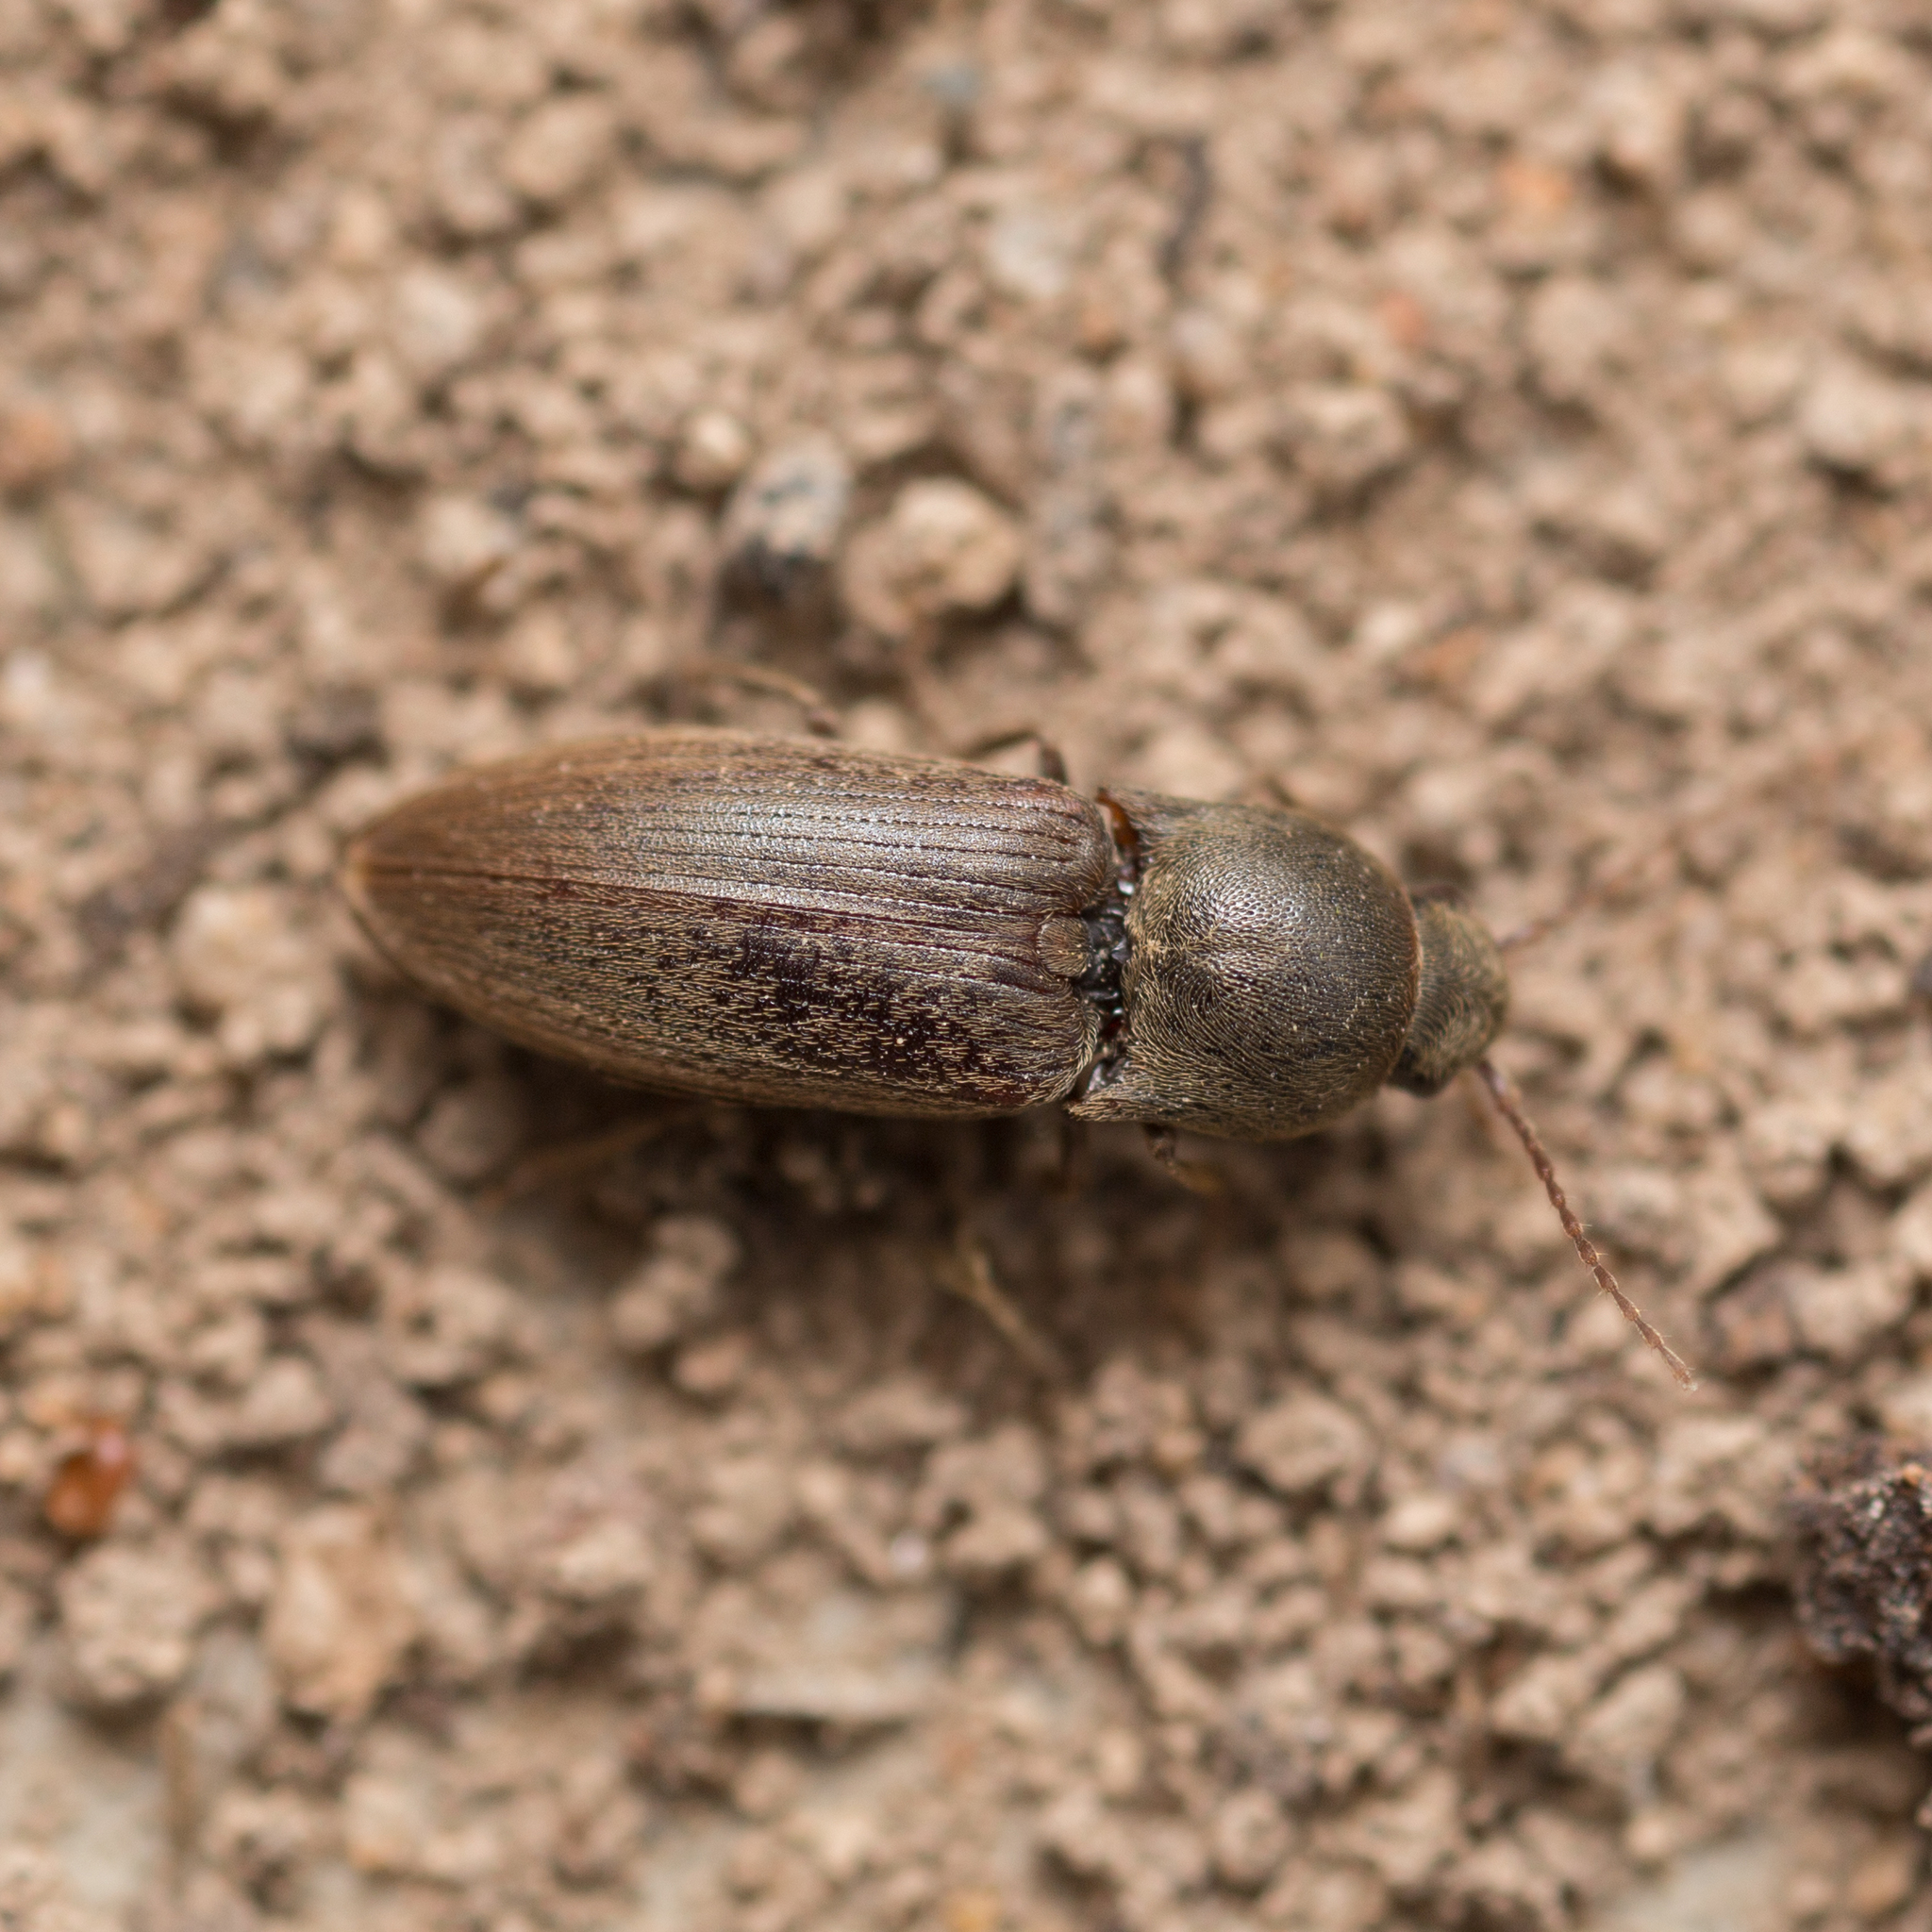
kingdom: Animalia
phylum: Arthropoda
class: Insecta
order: Coleoptera
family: Elateridae
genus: Agriotes
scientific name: Agriotes obscurus
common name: Dusky wireworm
